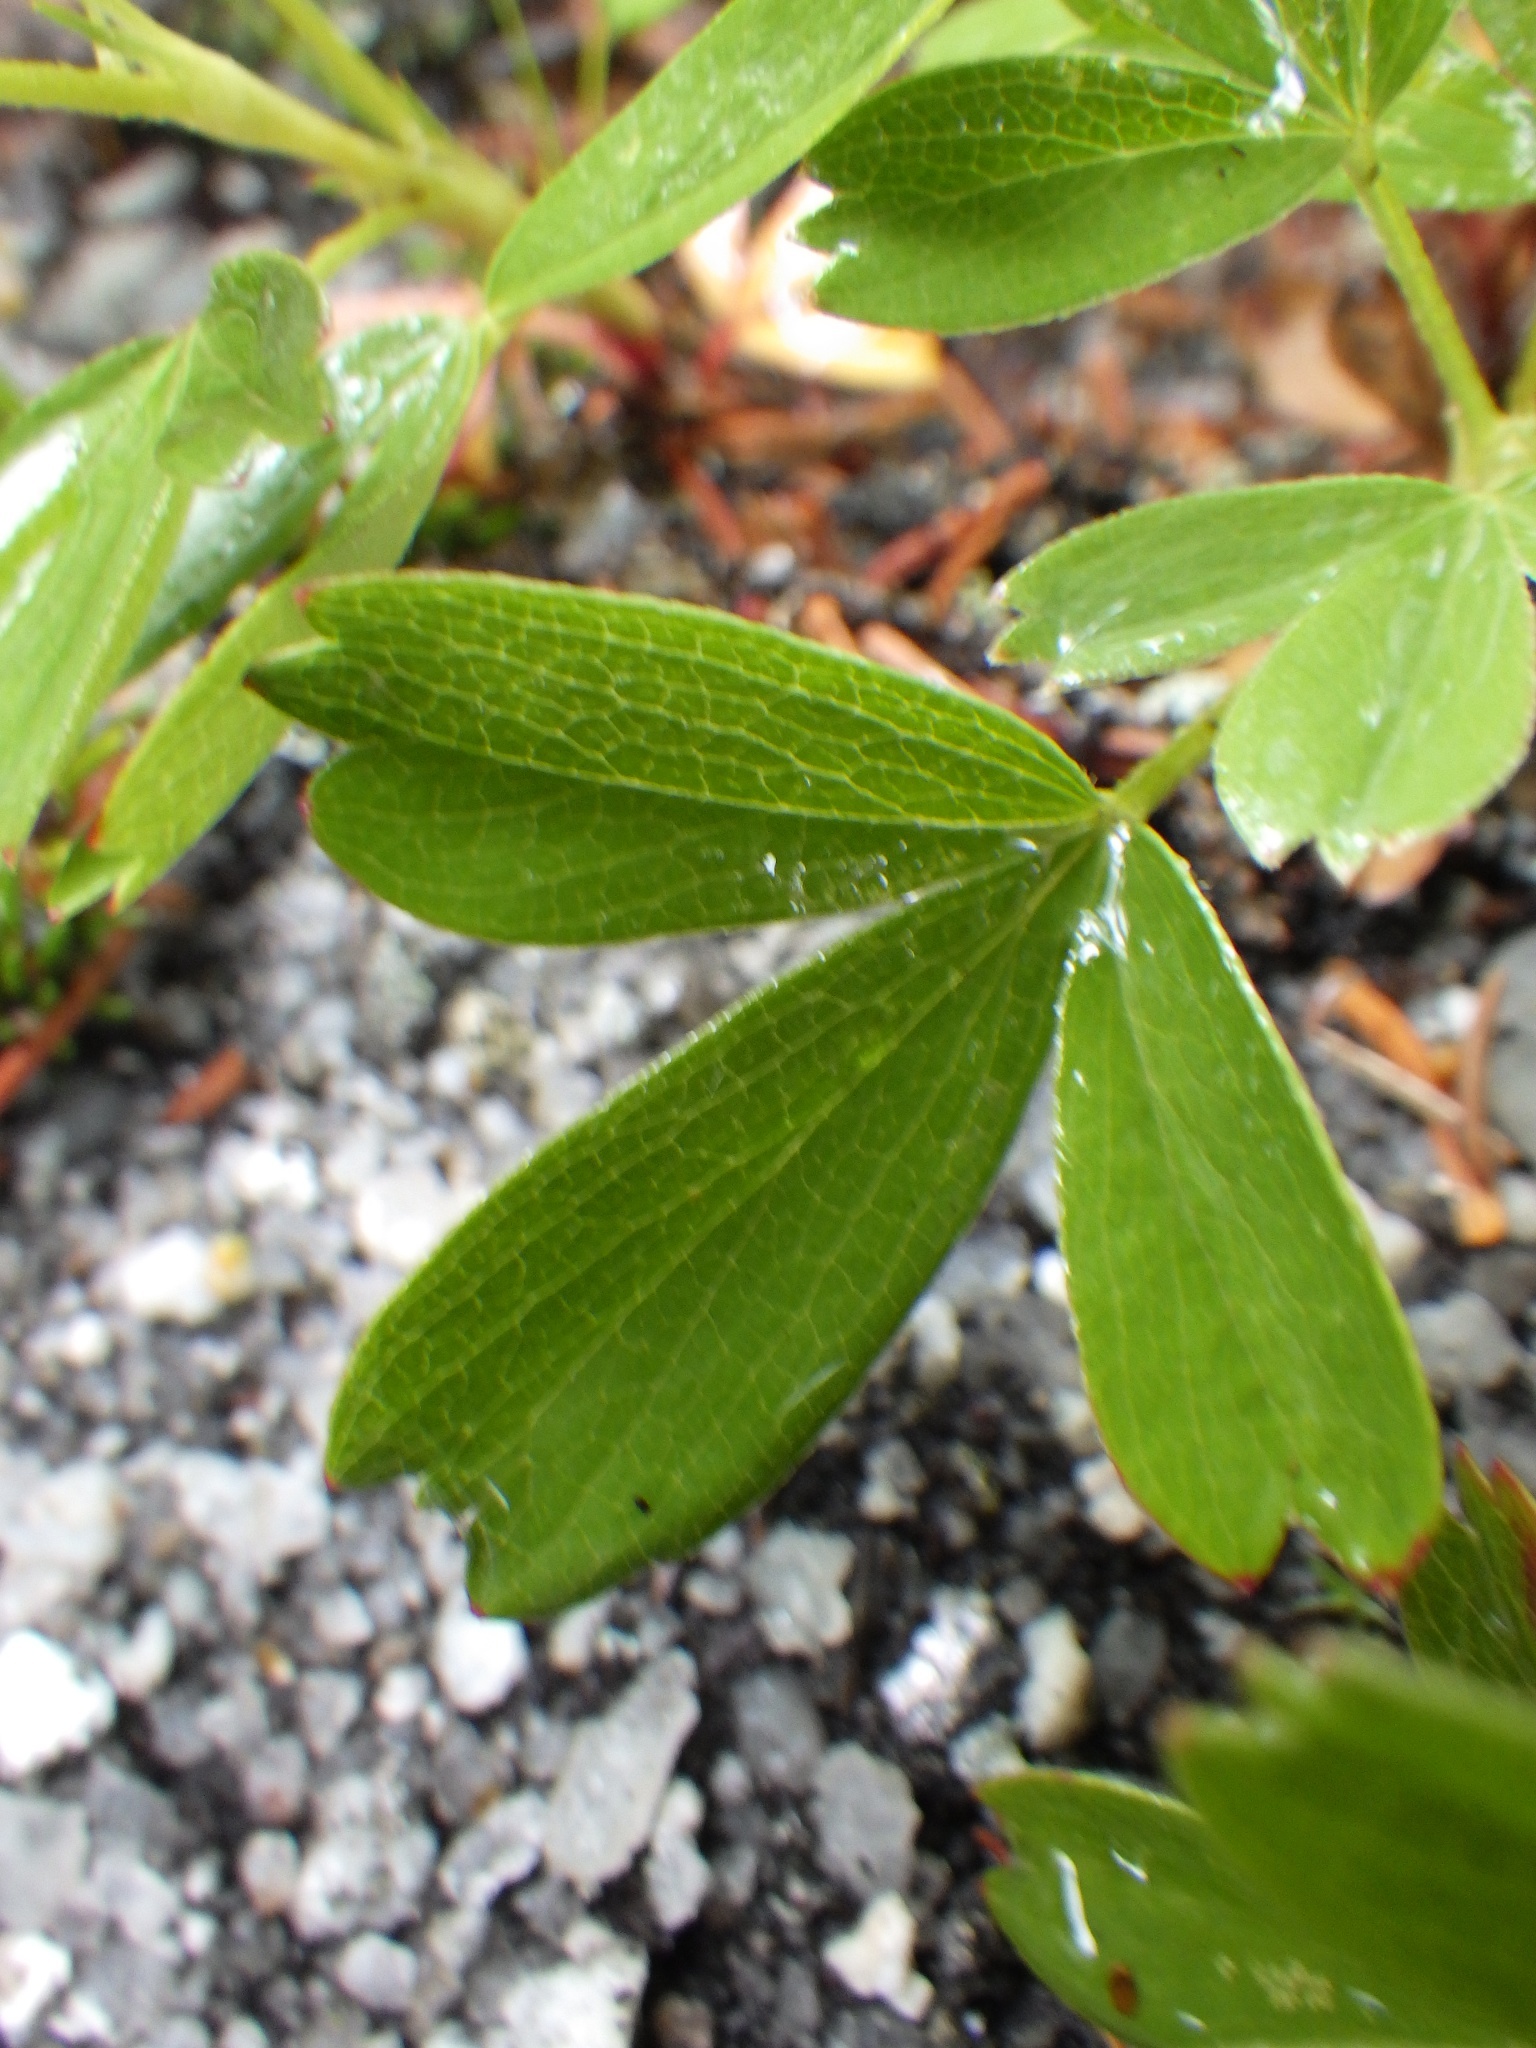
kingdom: Plantae
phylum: Tracheophyta
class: Magnoliopsida
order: Rosales
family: Rosaceae
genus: Sibbaldia
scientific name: Sibbaldia tridentata
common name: Three-toothed cinquefoil
